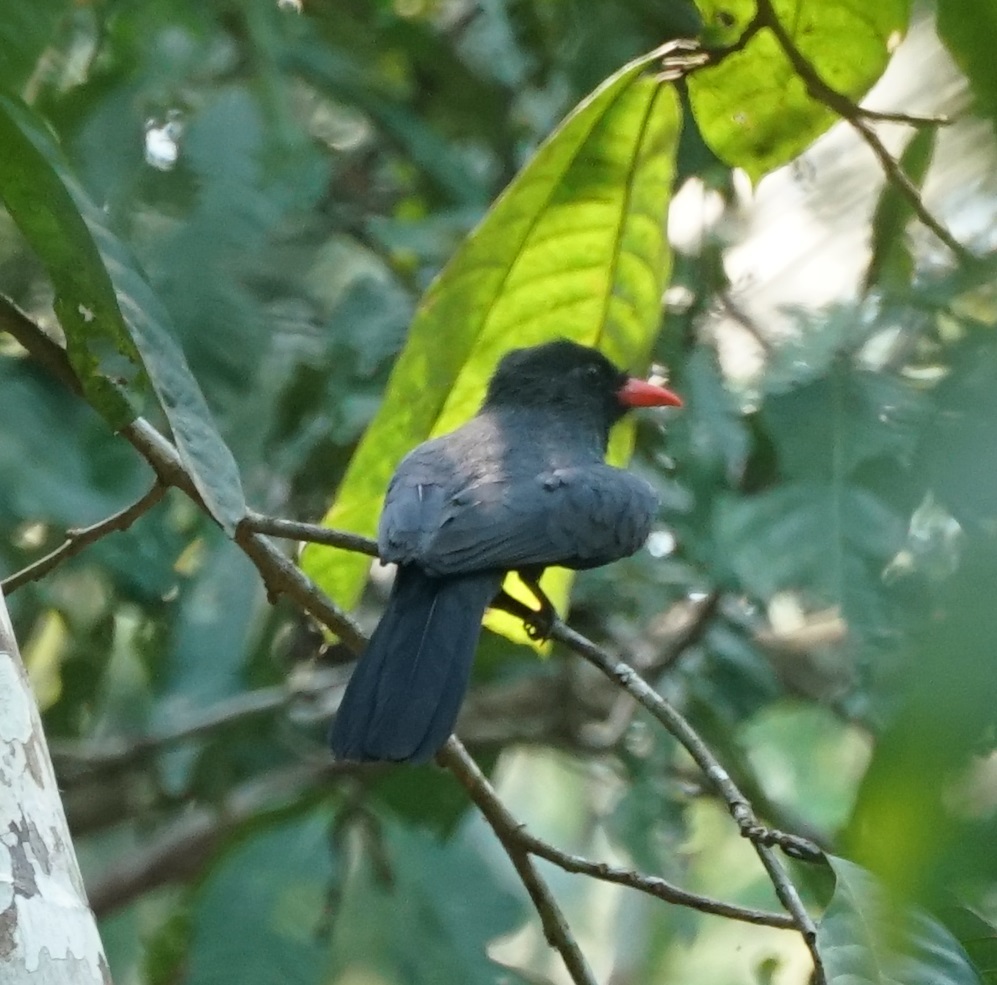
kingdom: Animalia
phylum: Chordata
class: Aves
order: Piciformes
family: Bucconidae
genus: Monasa
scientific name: Monasa nigrifrons
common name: Black-fronted nunbird
